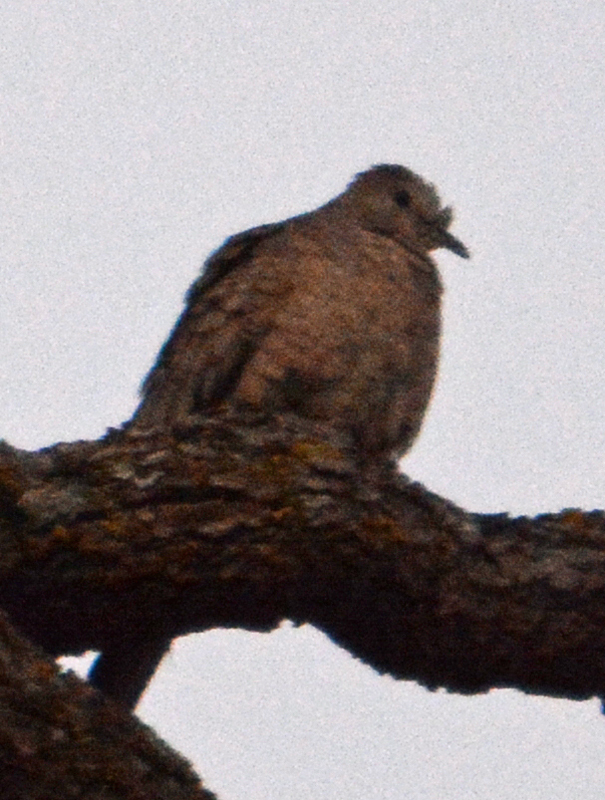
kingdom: Animalia
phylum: Chordata
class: Aves
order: Columbiformes
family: Columbidae
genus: Columbina
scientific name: Columbina inca
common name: Inca dove
